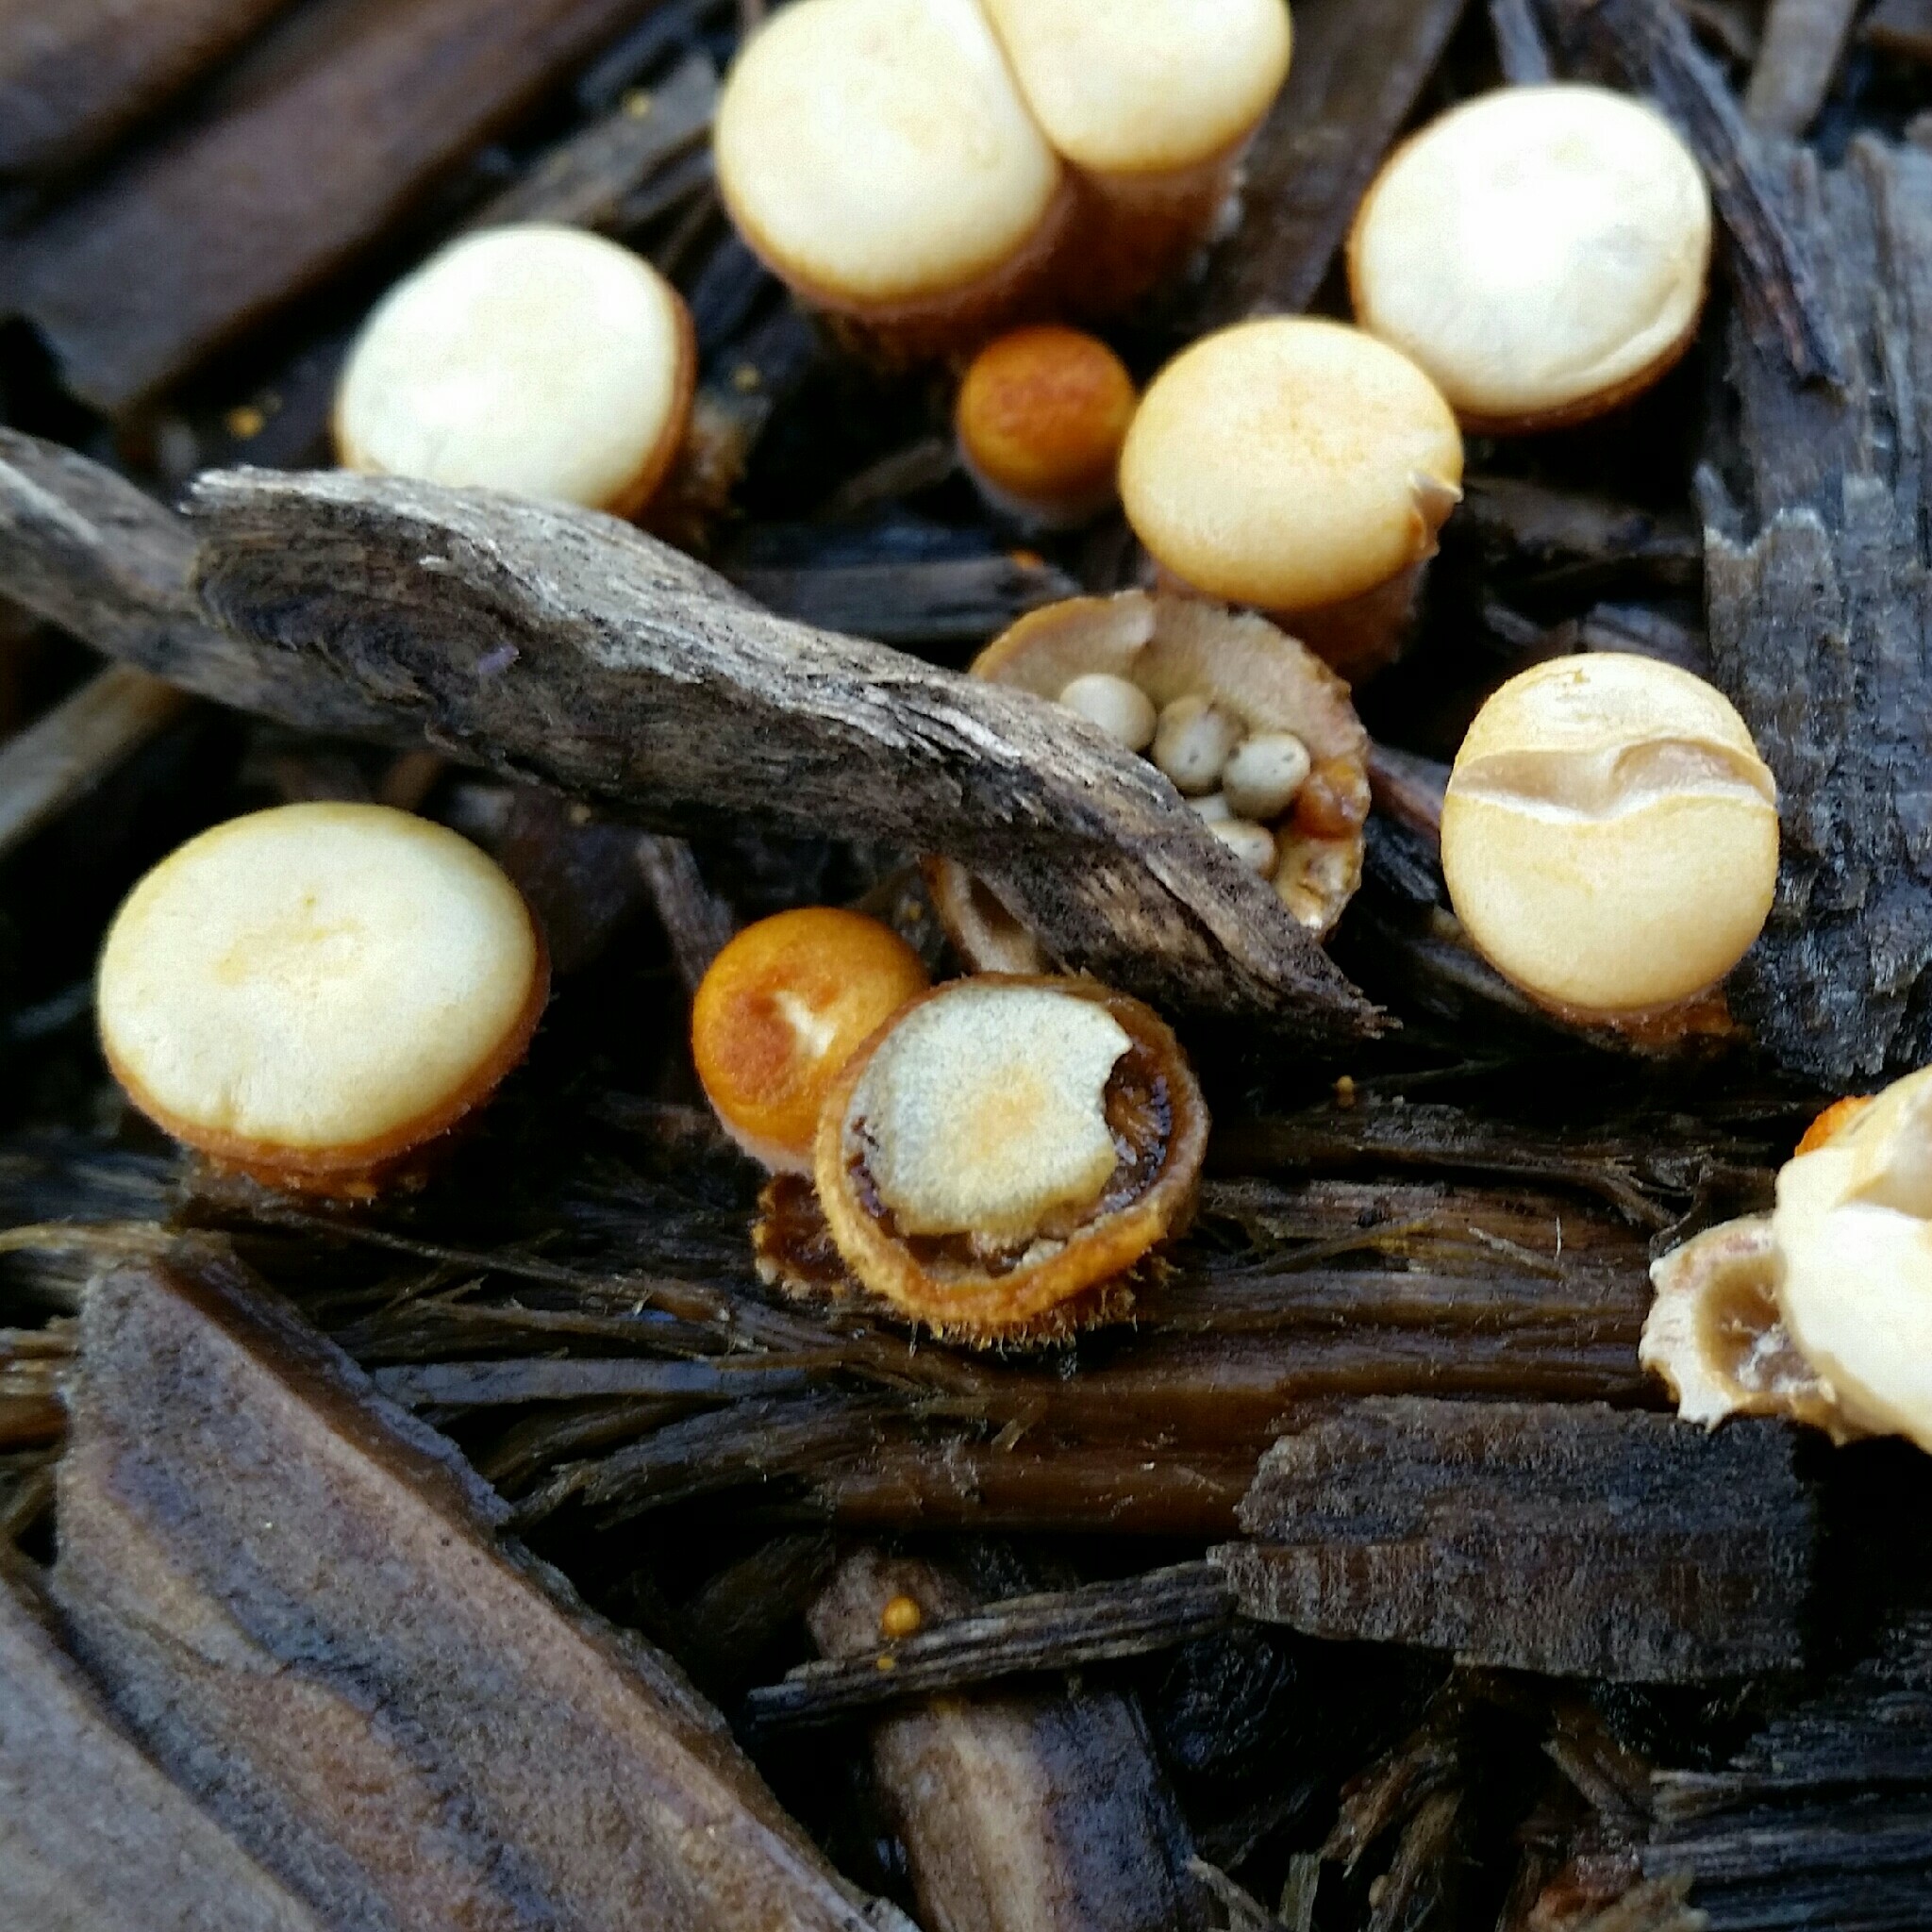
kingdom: Fungi
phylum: Basidiomycota
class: Agaricomycetes
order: Agaricales
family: Nidulariaceae
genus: Crucibulum
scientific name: Crucibulum laeve
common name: Common bird's nest
